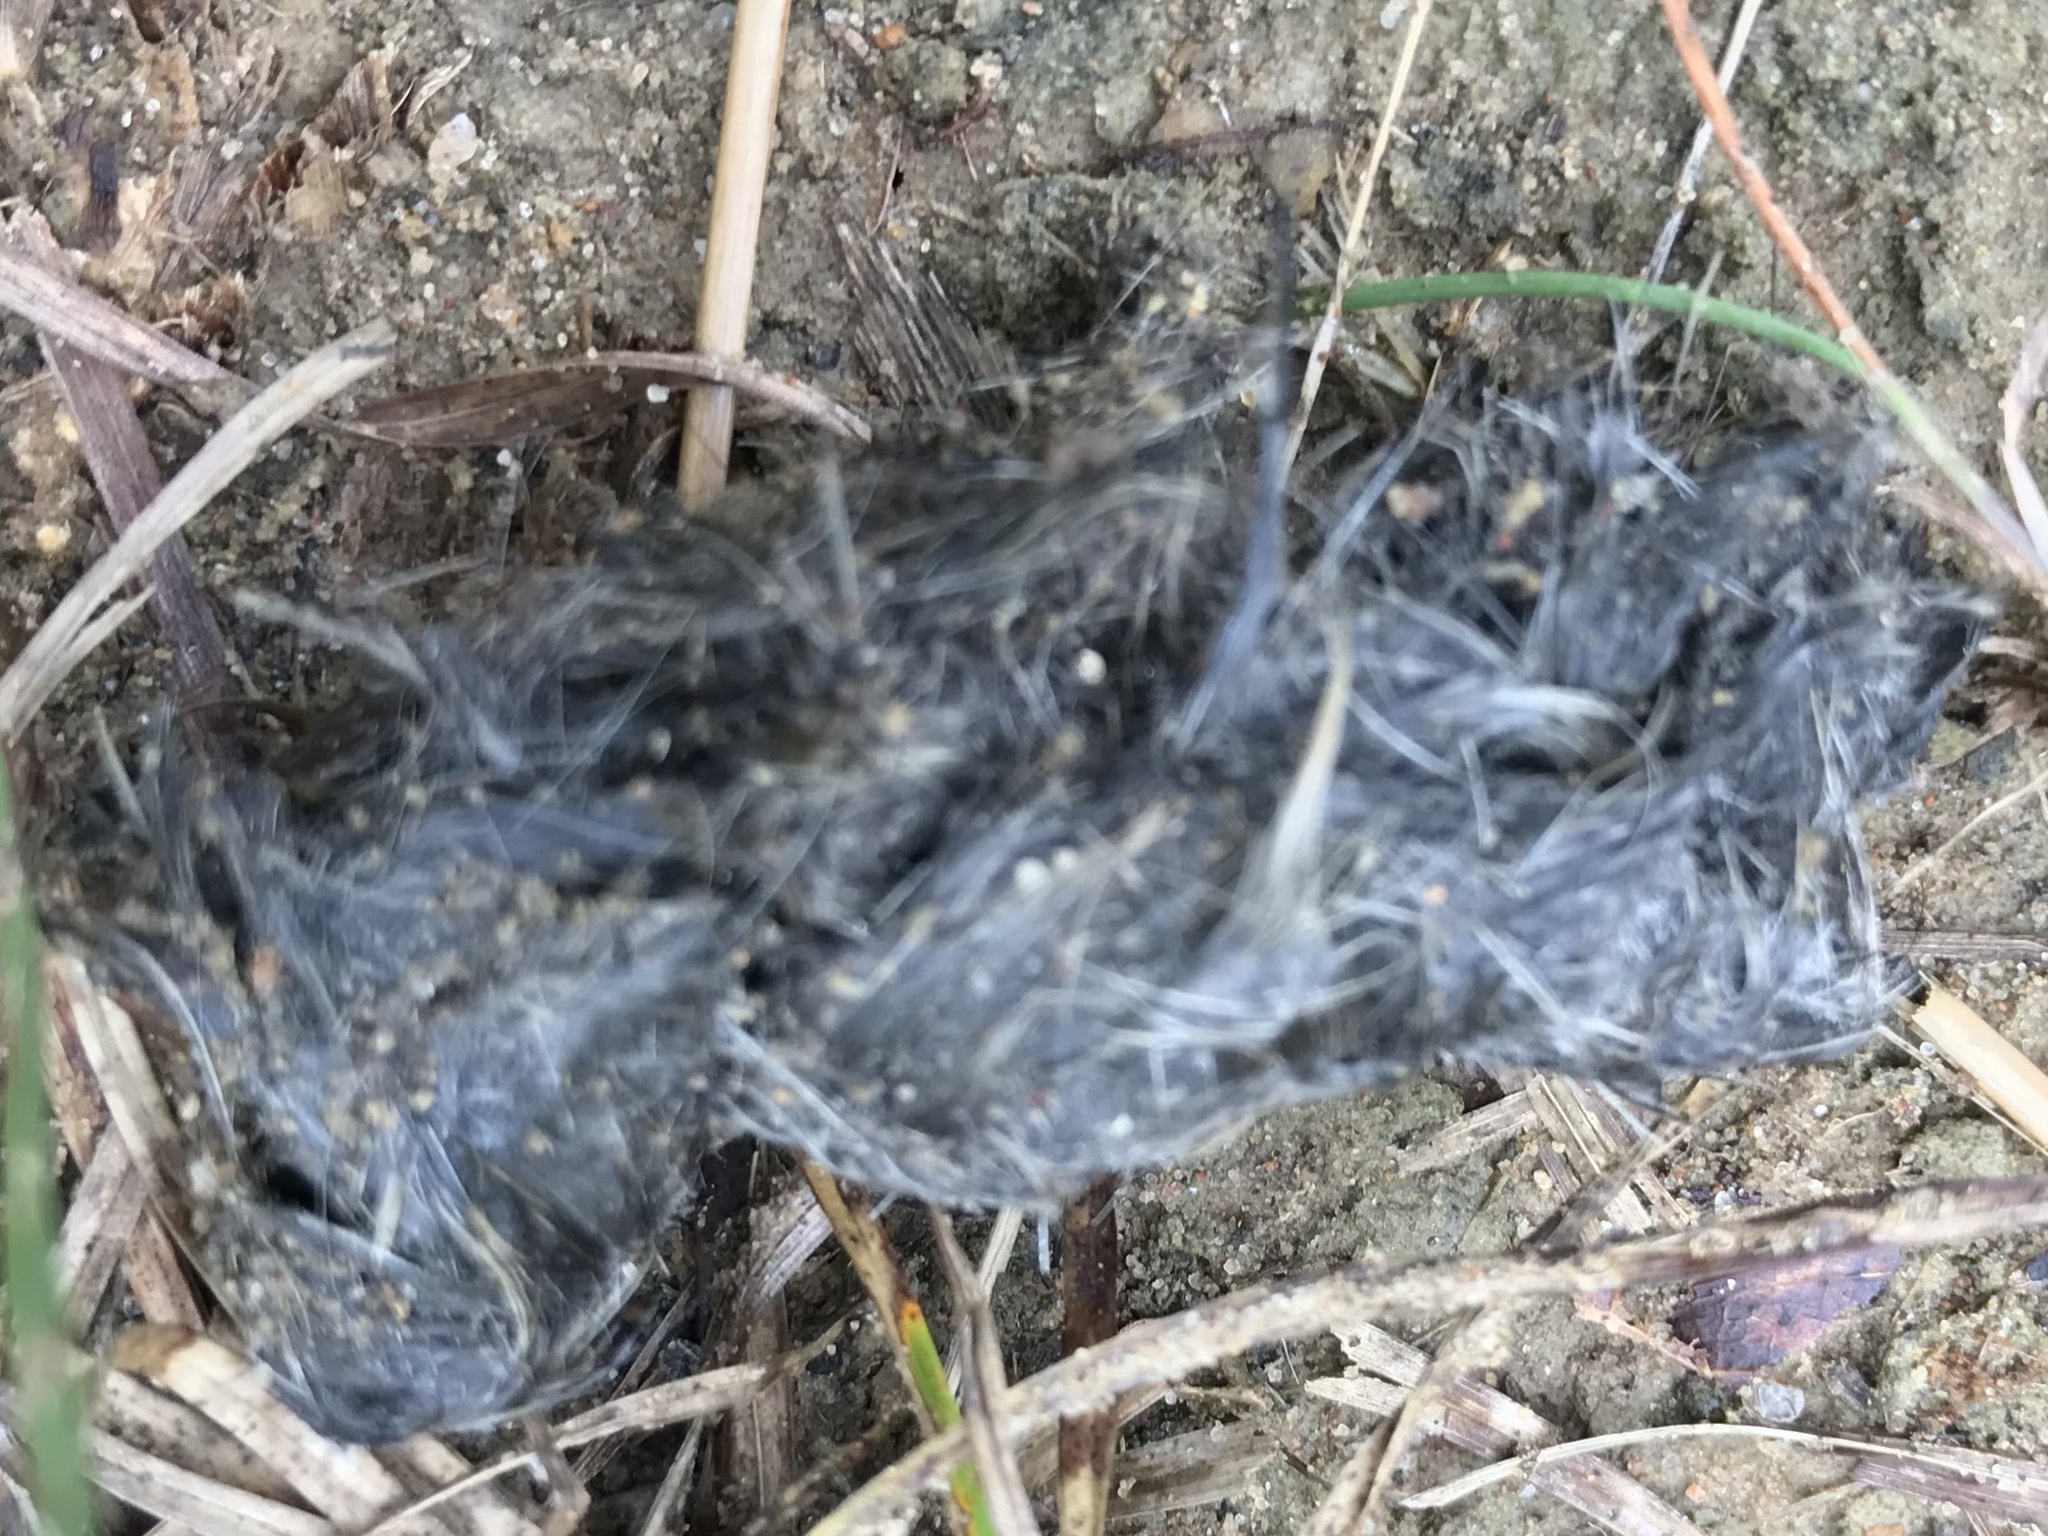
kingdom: Animalia
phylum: Chordata
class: Mammalia
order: Carnivora
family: Canidae
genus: Canis
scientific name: Canis latrans
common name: Coyote
